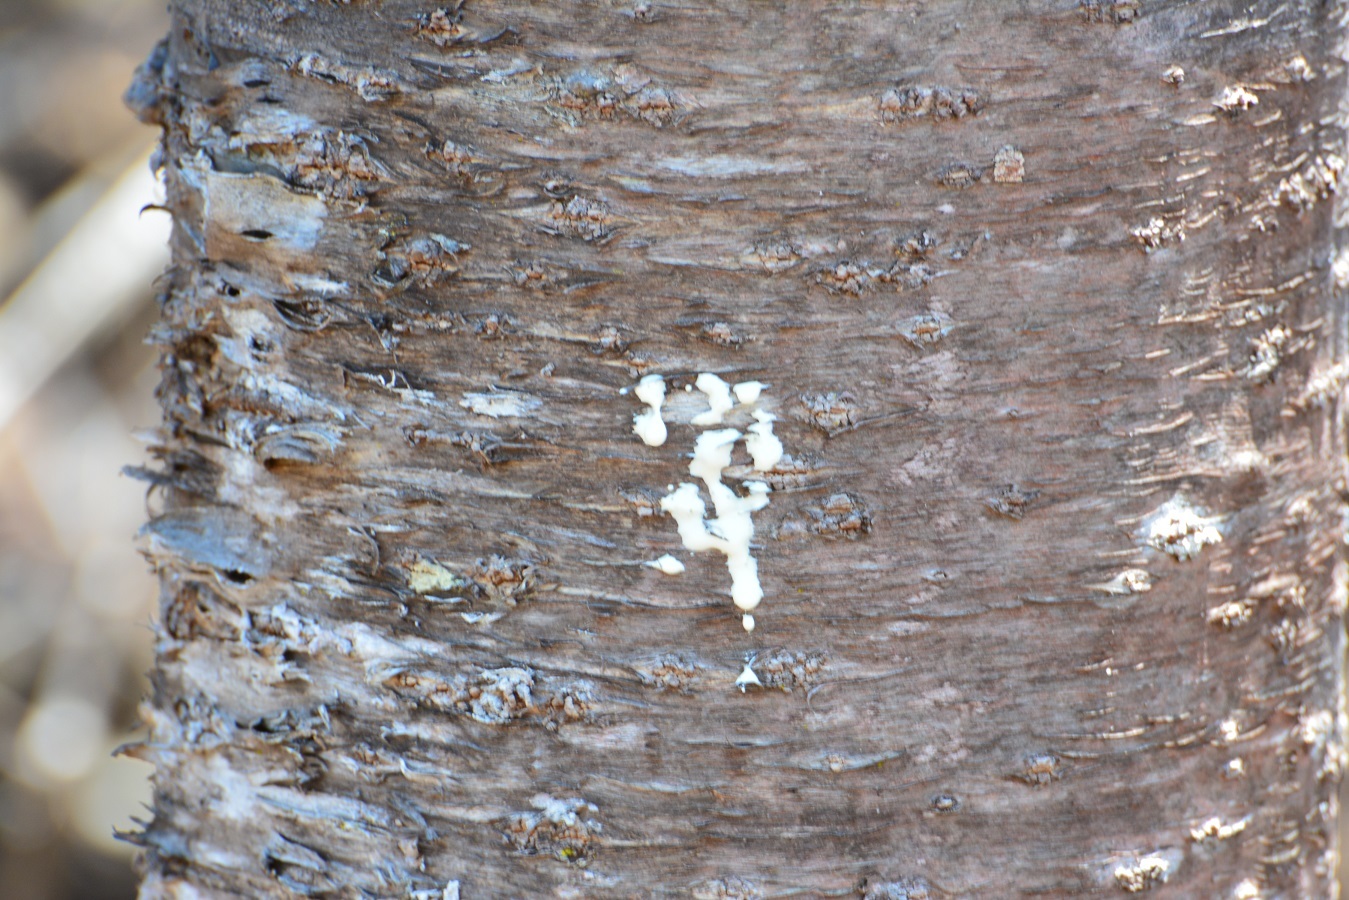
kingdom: Plantae
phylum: Tracheophyta
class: Magnoliopsida
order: Malpighiales
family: Euphorbiaceae
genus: Euphorbia
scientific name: Euphorbia lundelliana
